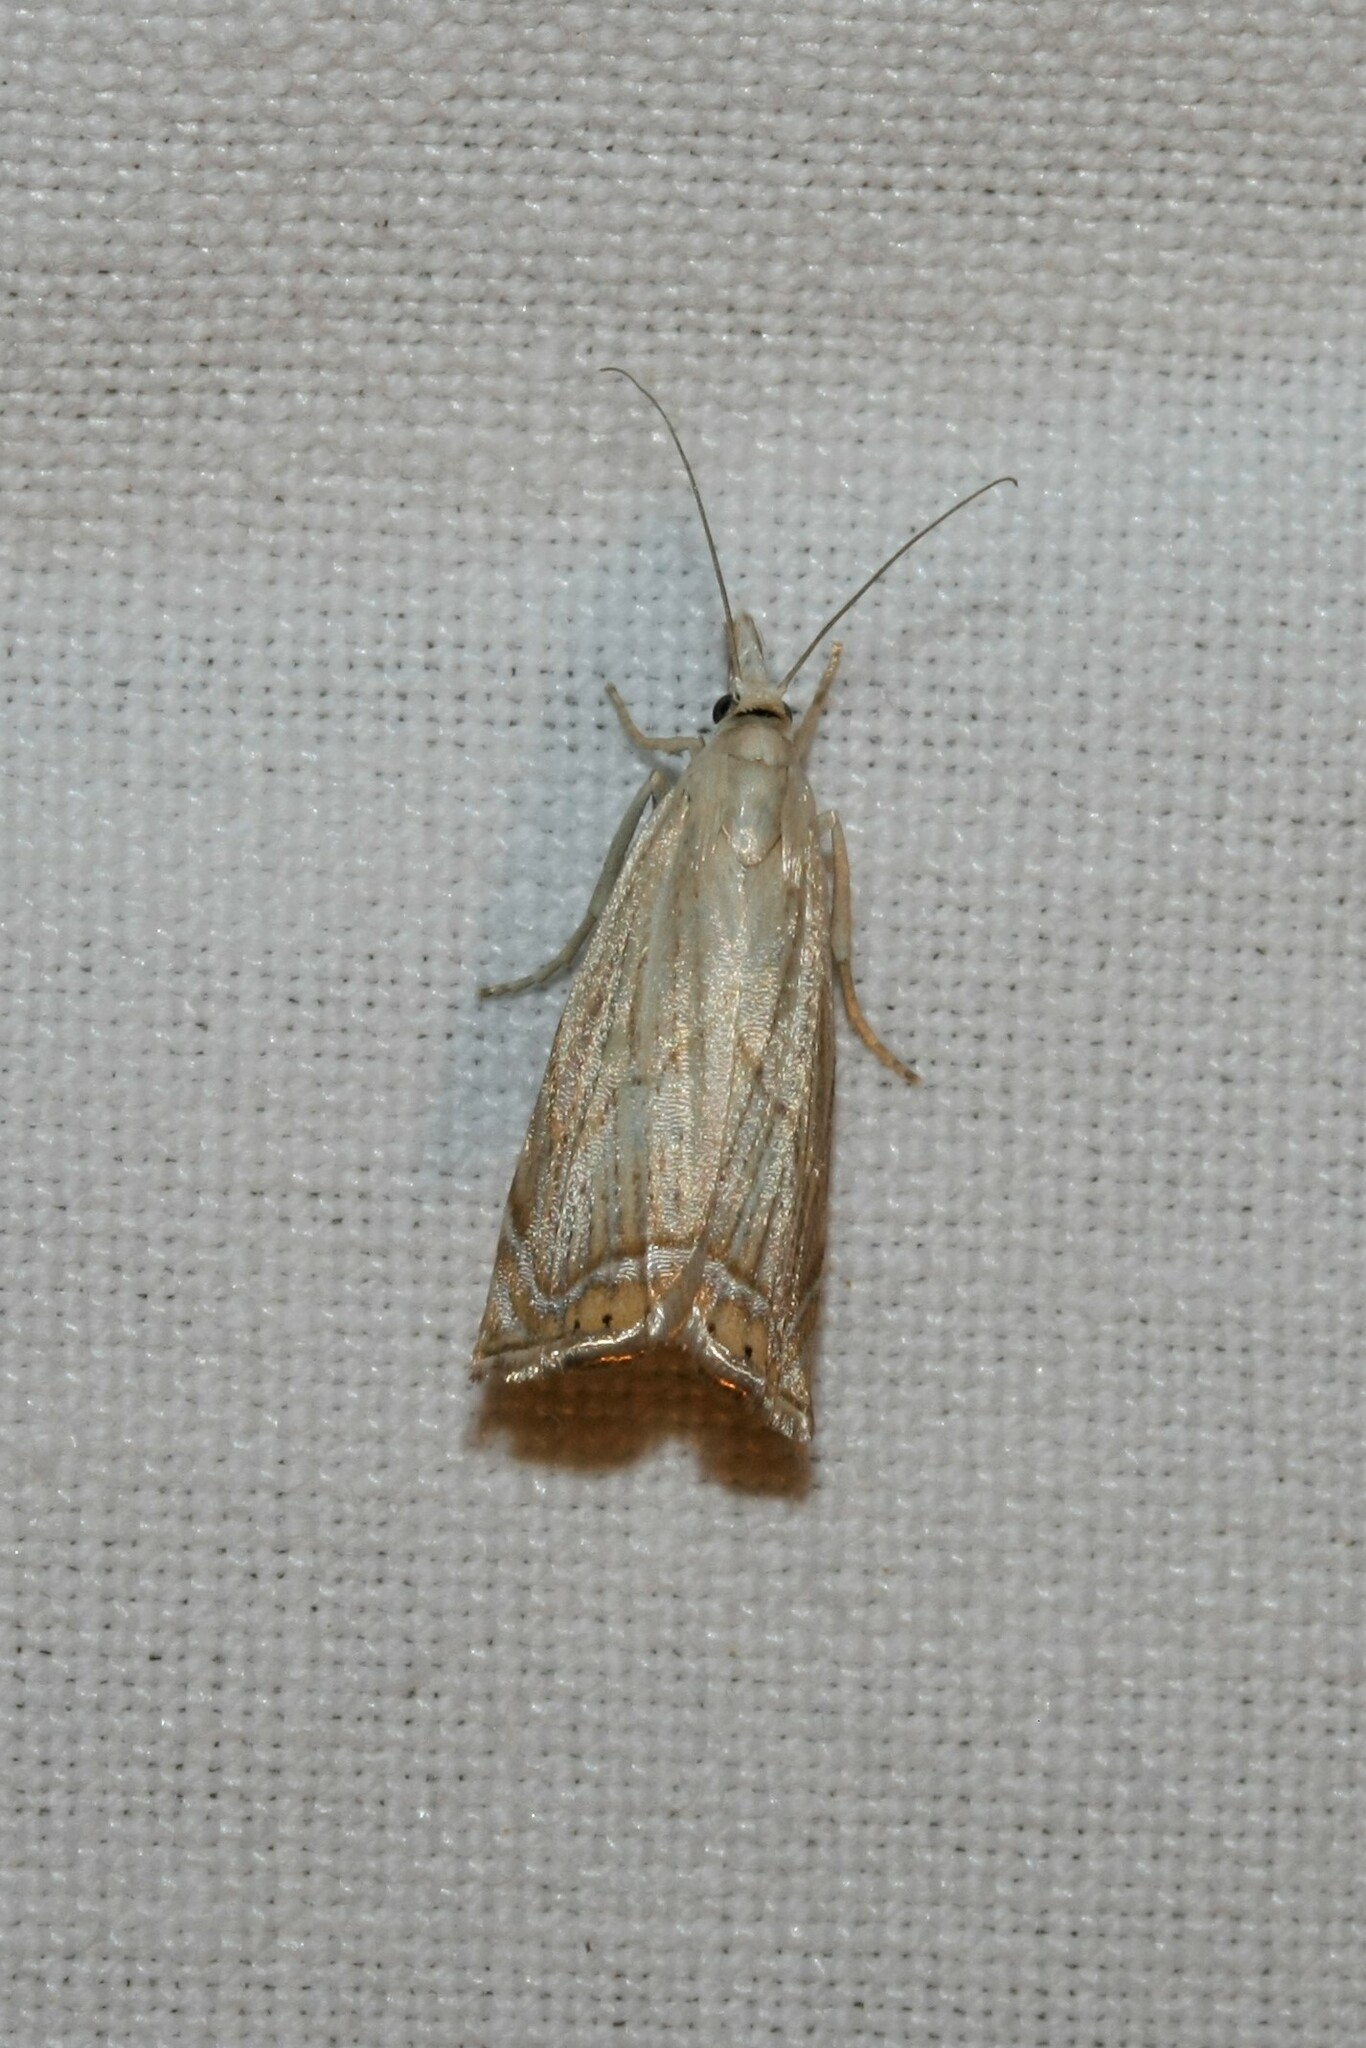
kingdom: Animalia
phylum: Arthropoda
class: Insecta
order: Lepidoptera
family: Crambidae
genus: Chrysoteuchia
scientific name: Chrysoteuchia culmella
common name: Garden grass-veneer
